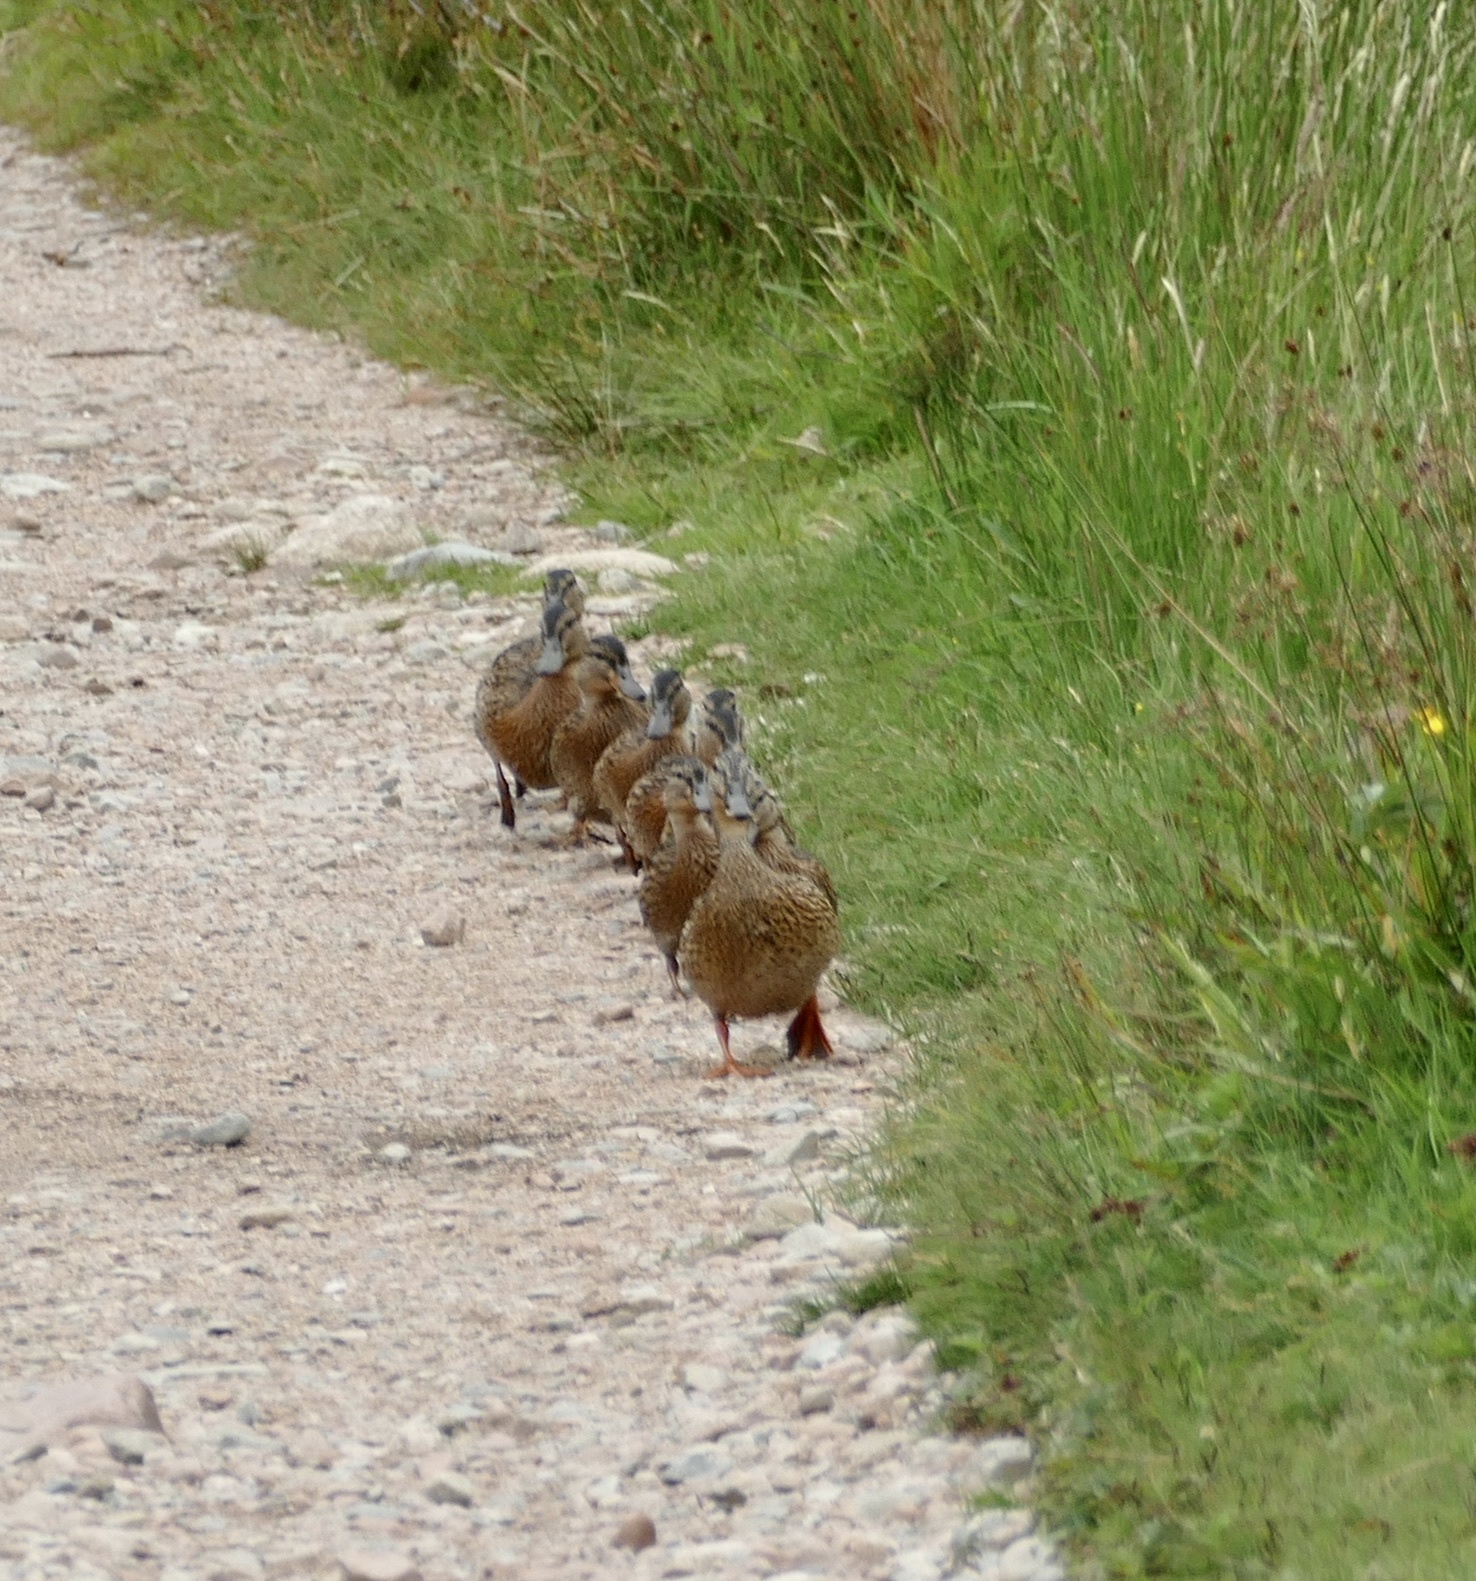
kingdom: Animalia
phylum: Chordata
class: Aves
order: Anseriformes
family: Anatidae
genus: Anas
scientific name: Anas platyrhynchos
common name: Mallard
